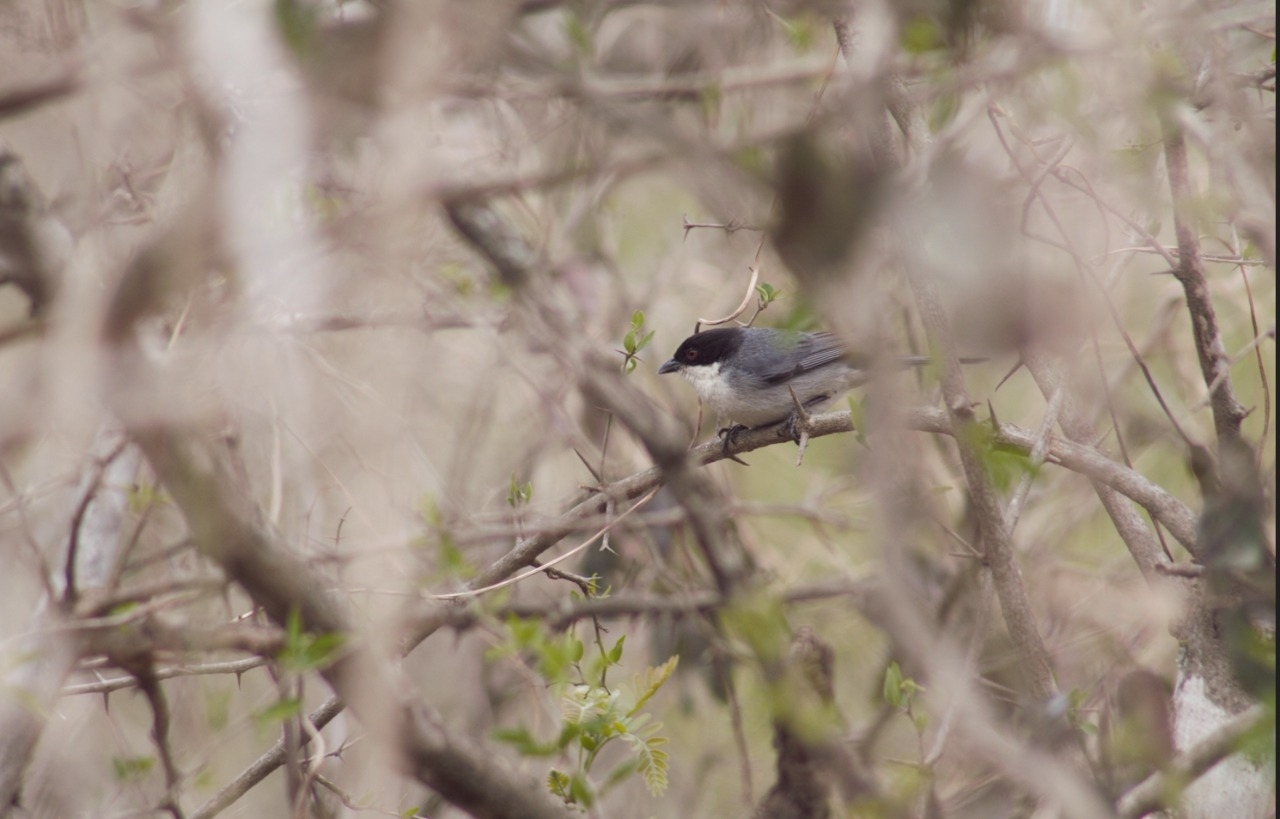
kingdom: Animalia
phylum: Chordata
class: Aves
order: Passeriformes
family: Thraupidae
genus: Microspingus
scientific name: Microspingus melanoleucus
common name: Black-capped warbling-finch
